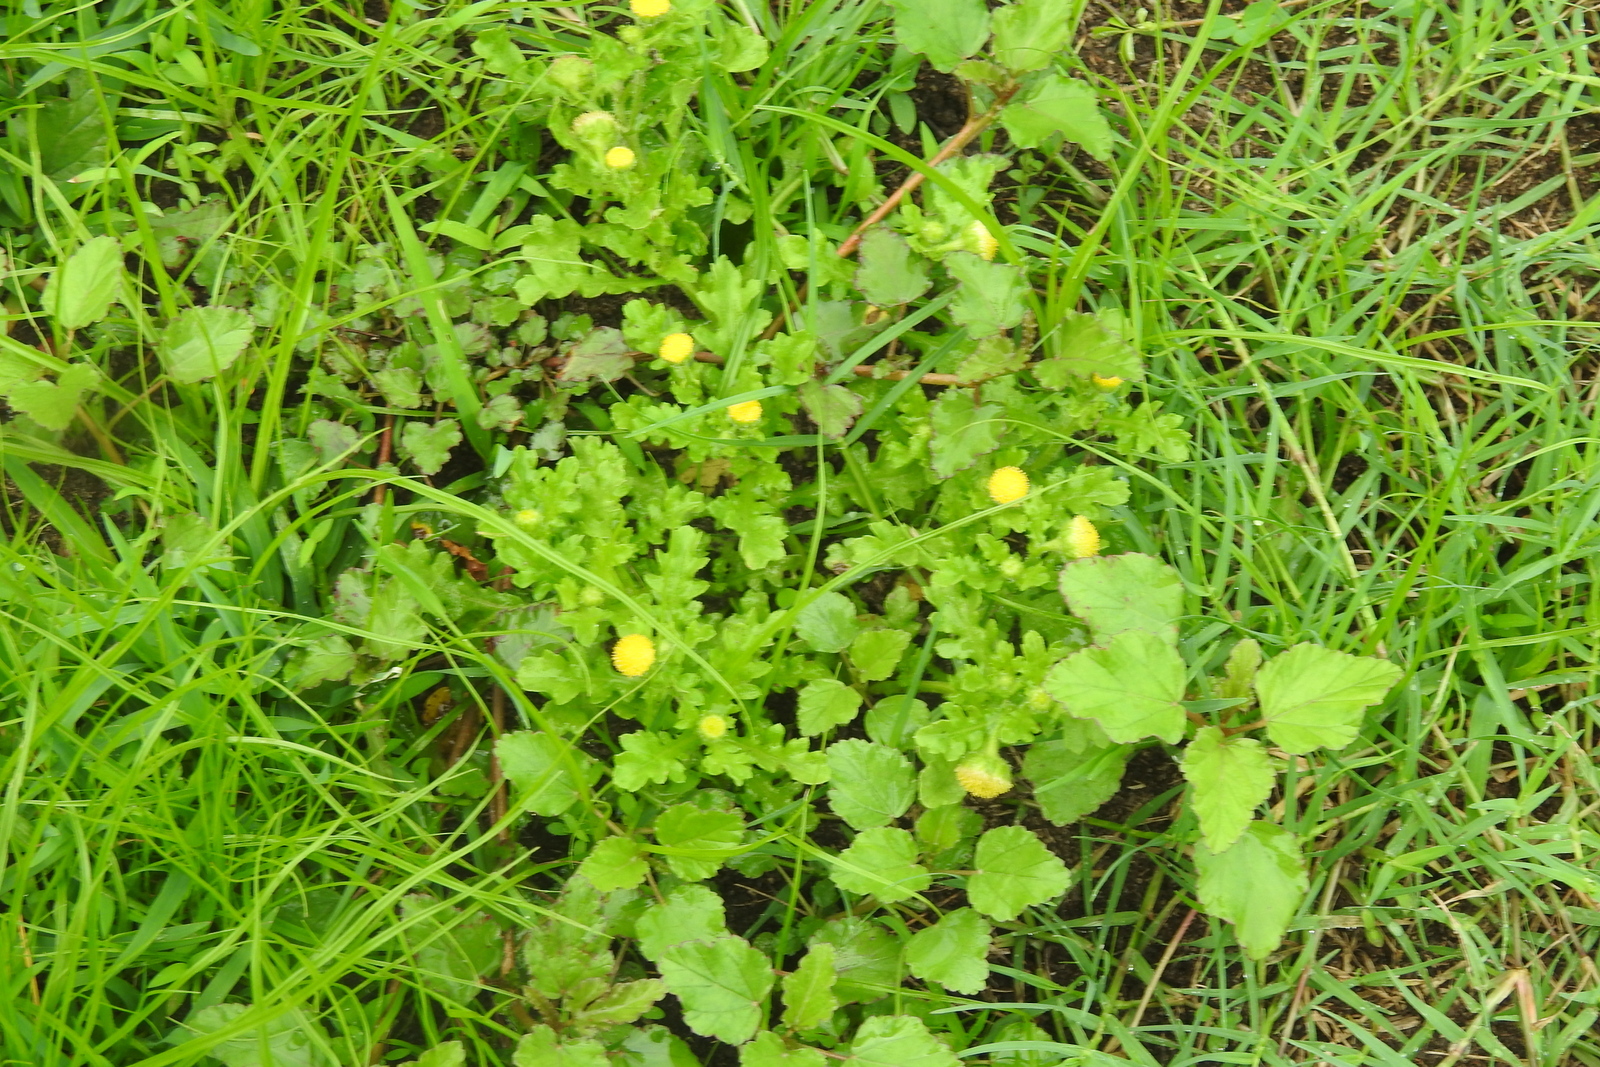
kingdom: Plantae
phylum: Tracheophyta
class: Magnoliopsida
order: Asterales
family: Asteraceae
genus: Grangea
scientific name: Grangea maderaspatana
